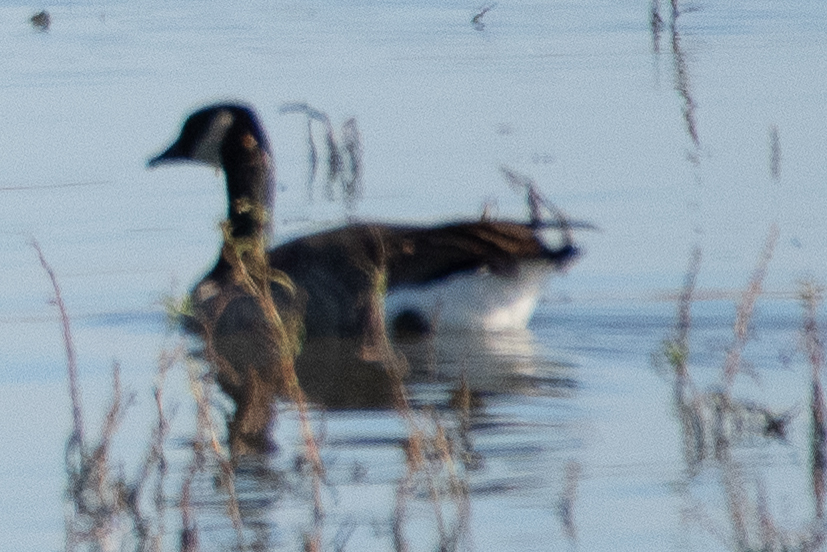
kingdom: Animalia
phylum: Chordata
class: Aves
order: Anseriformes
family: Anatidae
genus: Branta
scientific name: Branta canadensis
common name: Canada goose
